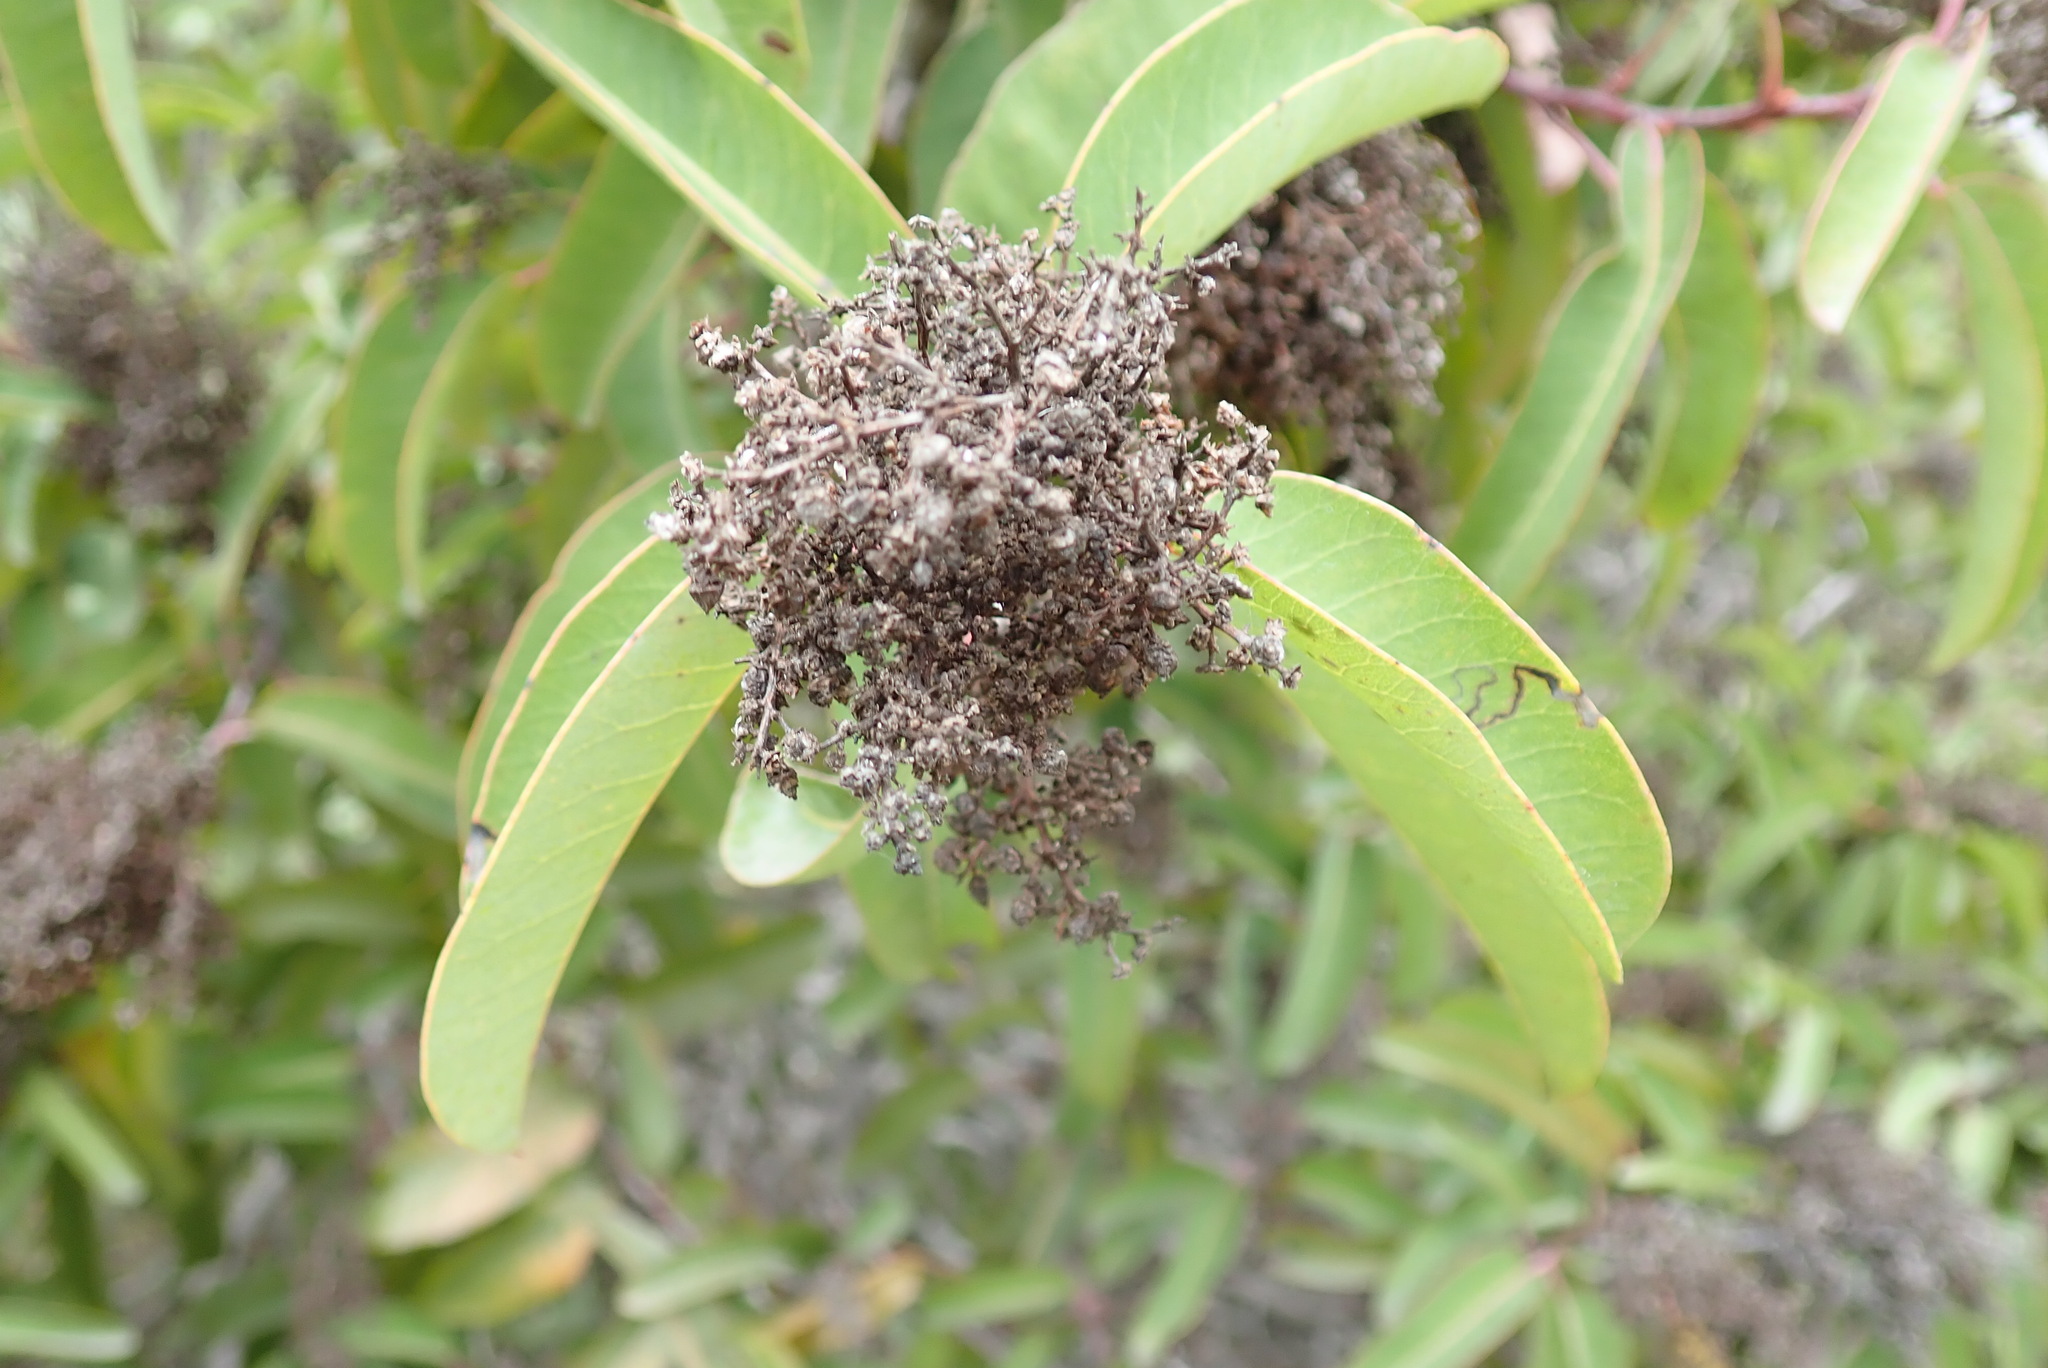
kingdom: Plantae
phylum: Tracheophyta
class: Magnoliopsida
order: Sapindales
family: Anacardiaceae
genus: Malosma
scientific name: Malosma laurina
